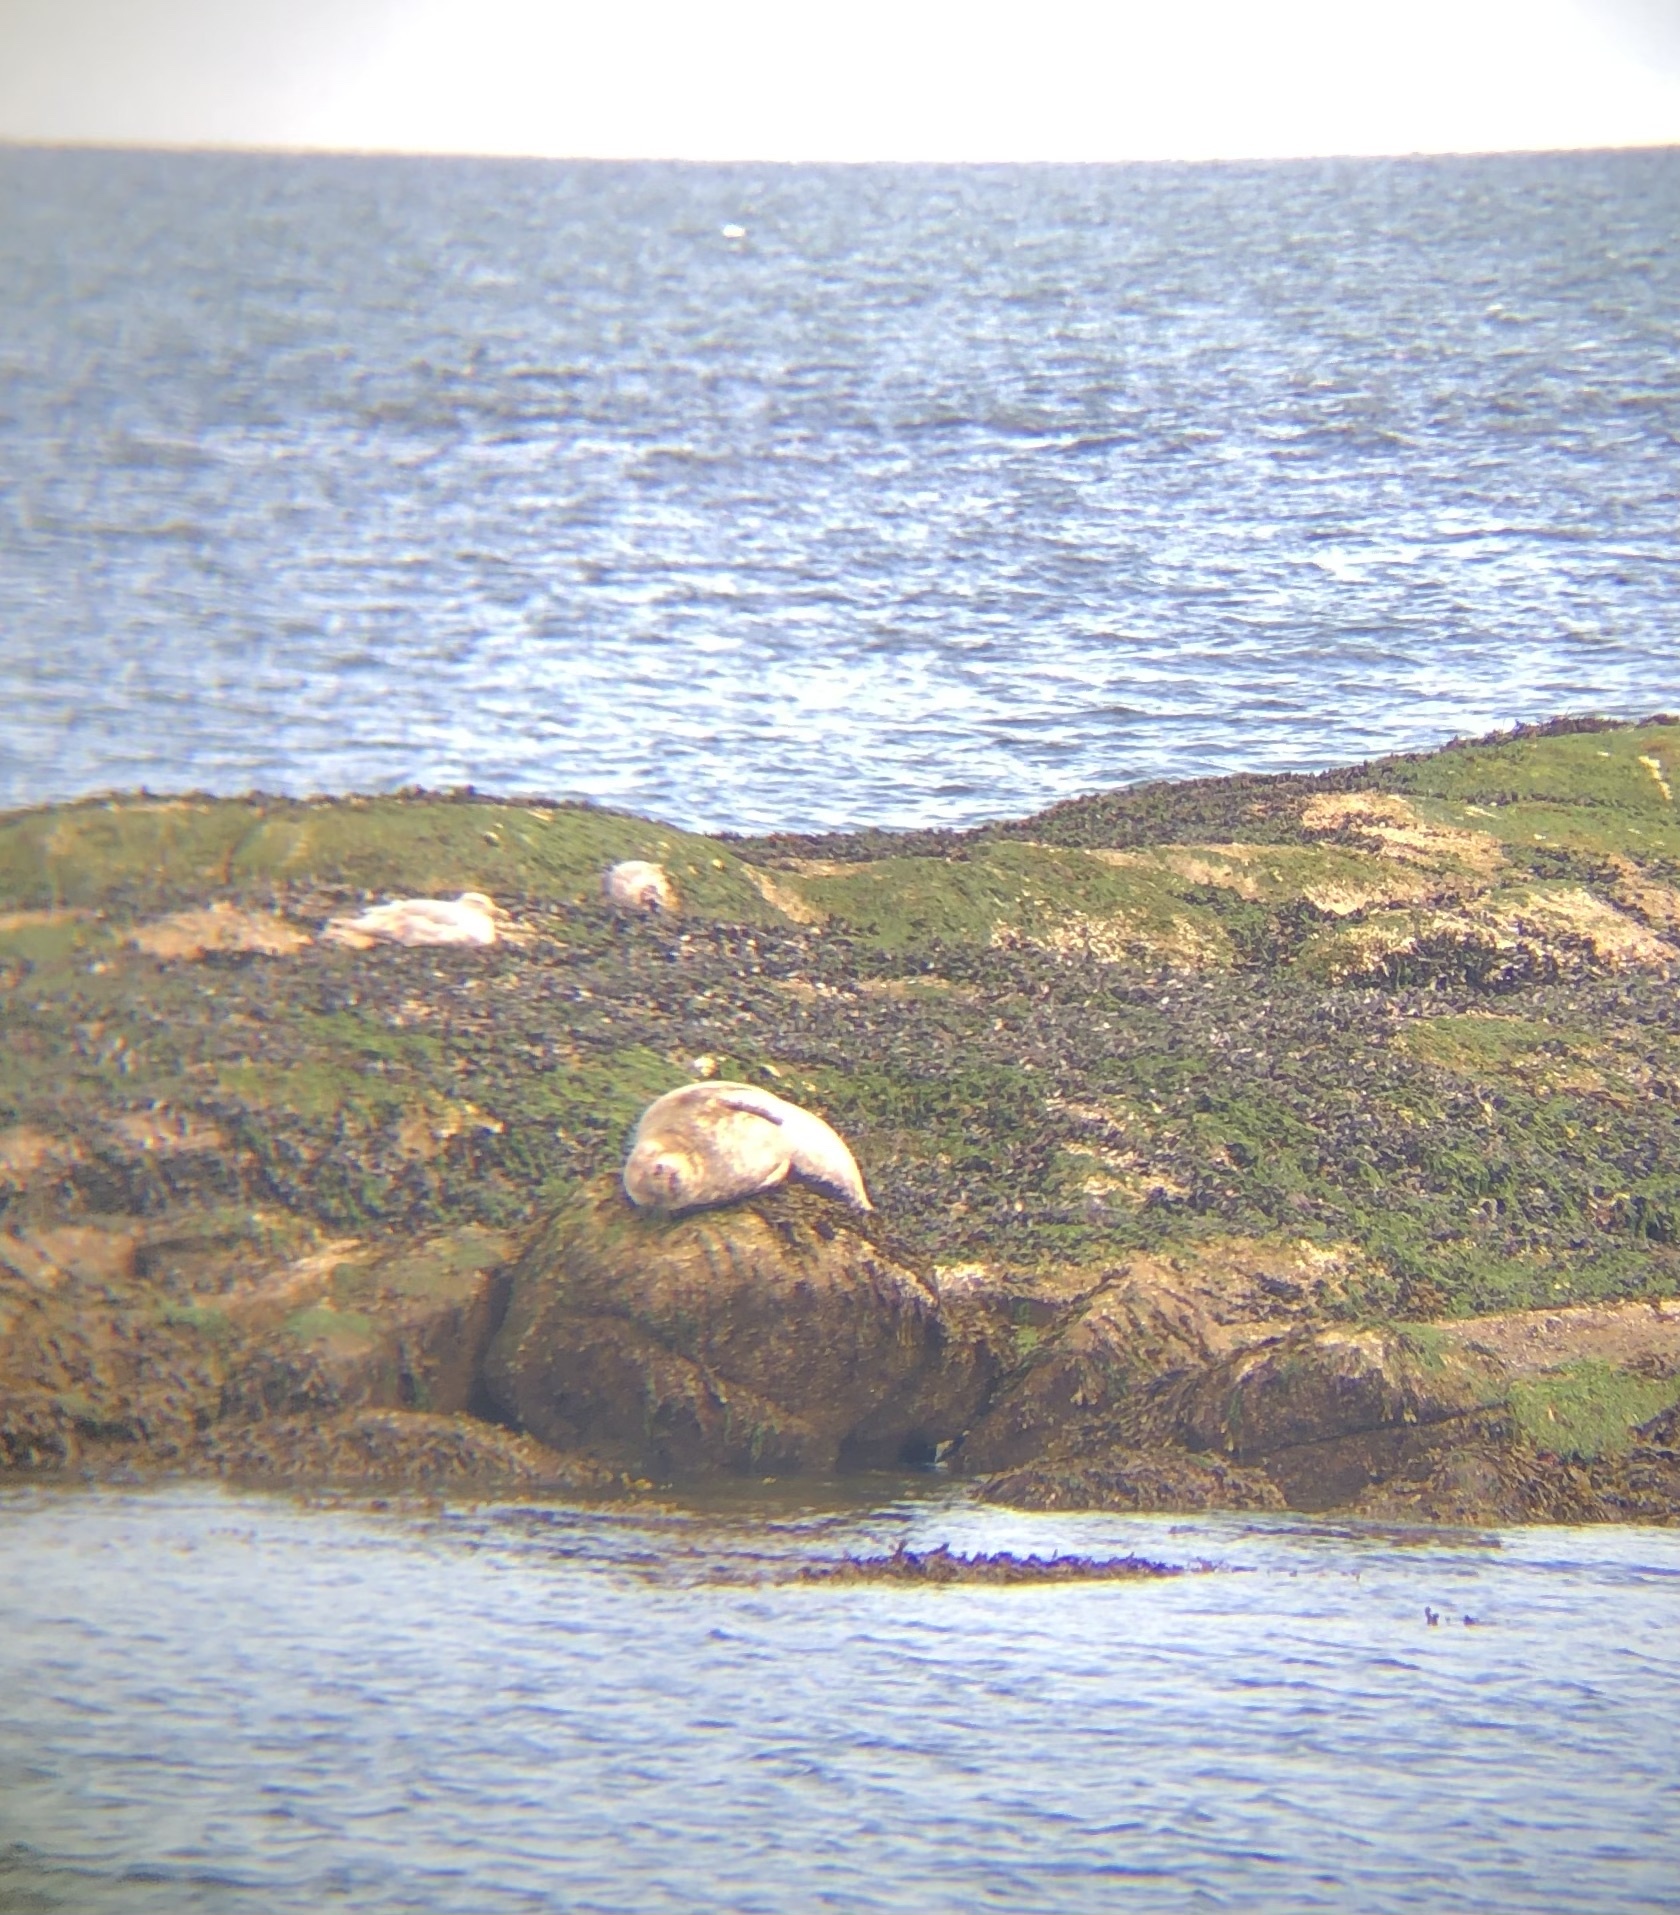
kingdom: Animalia
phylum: Chordata
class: Mammalia
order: Carnivora
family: Phocidae
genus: Phoca
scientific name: Phoca vitulina
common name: Harbor seal
